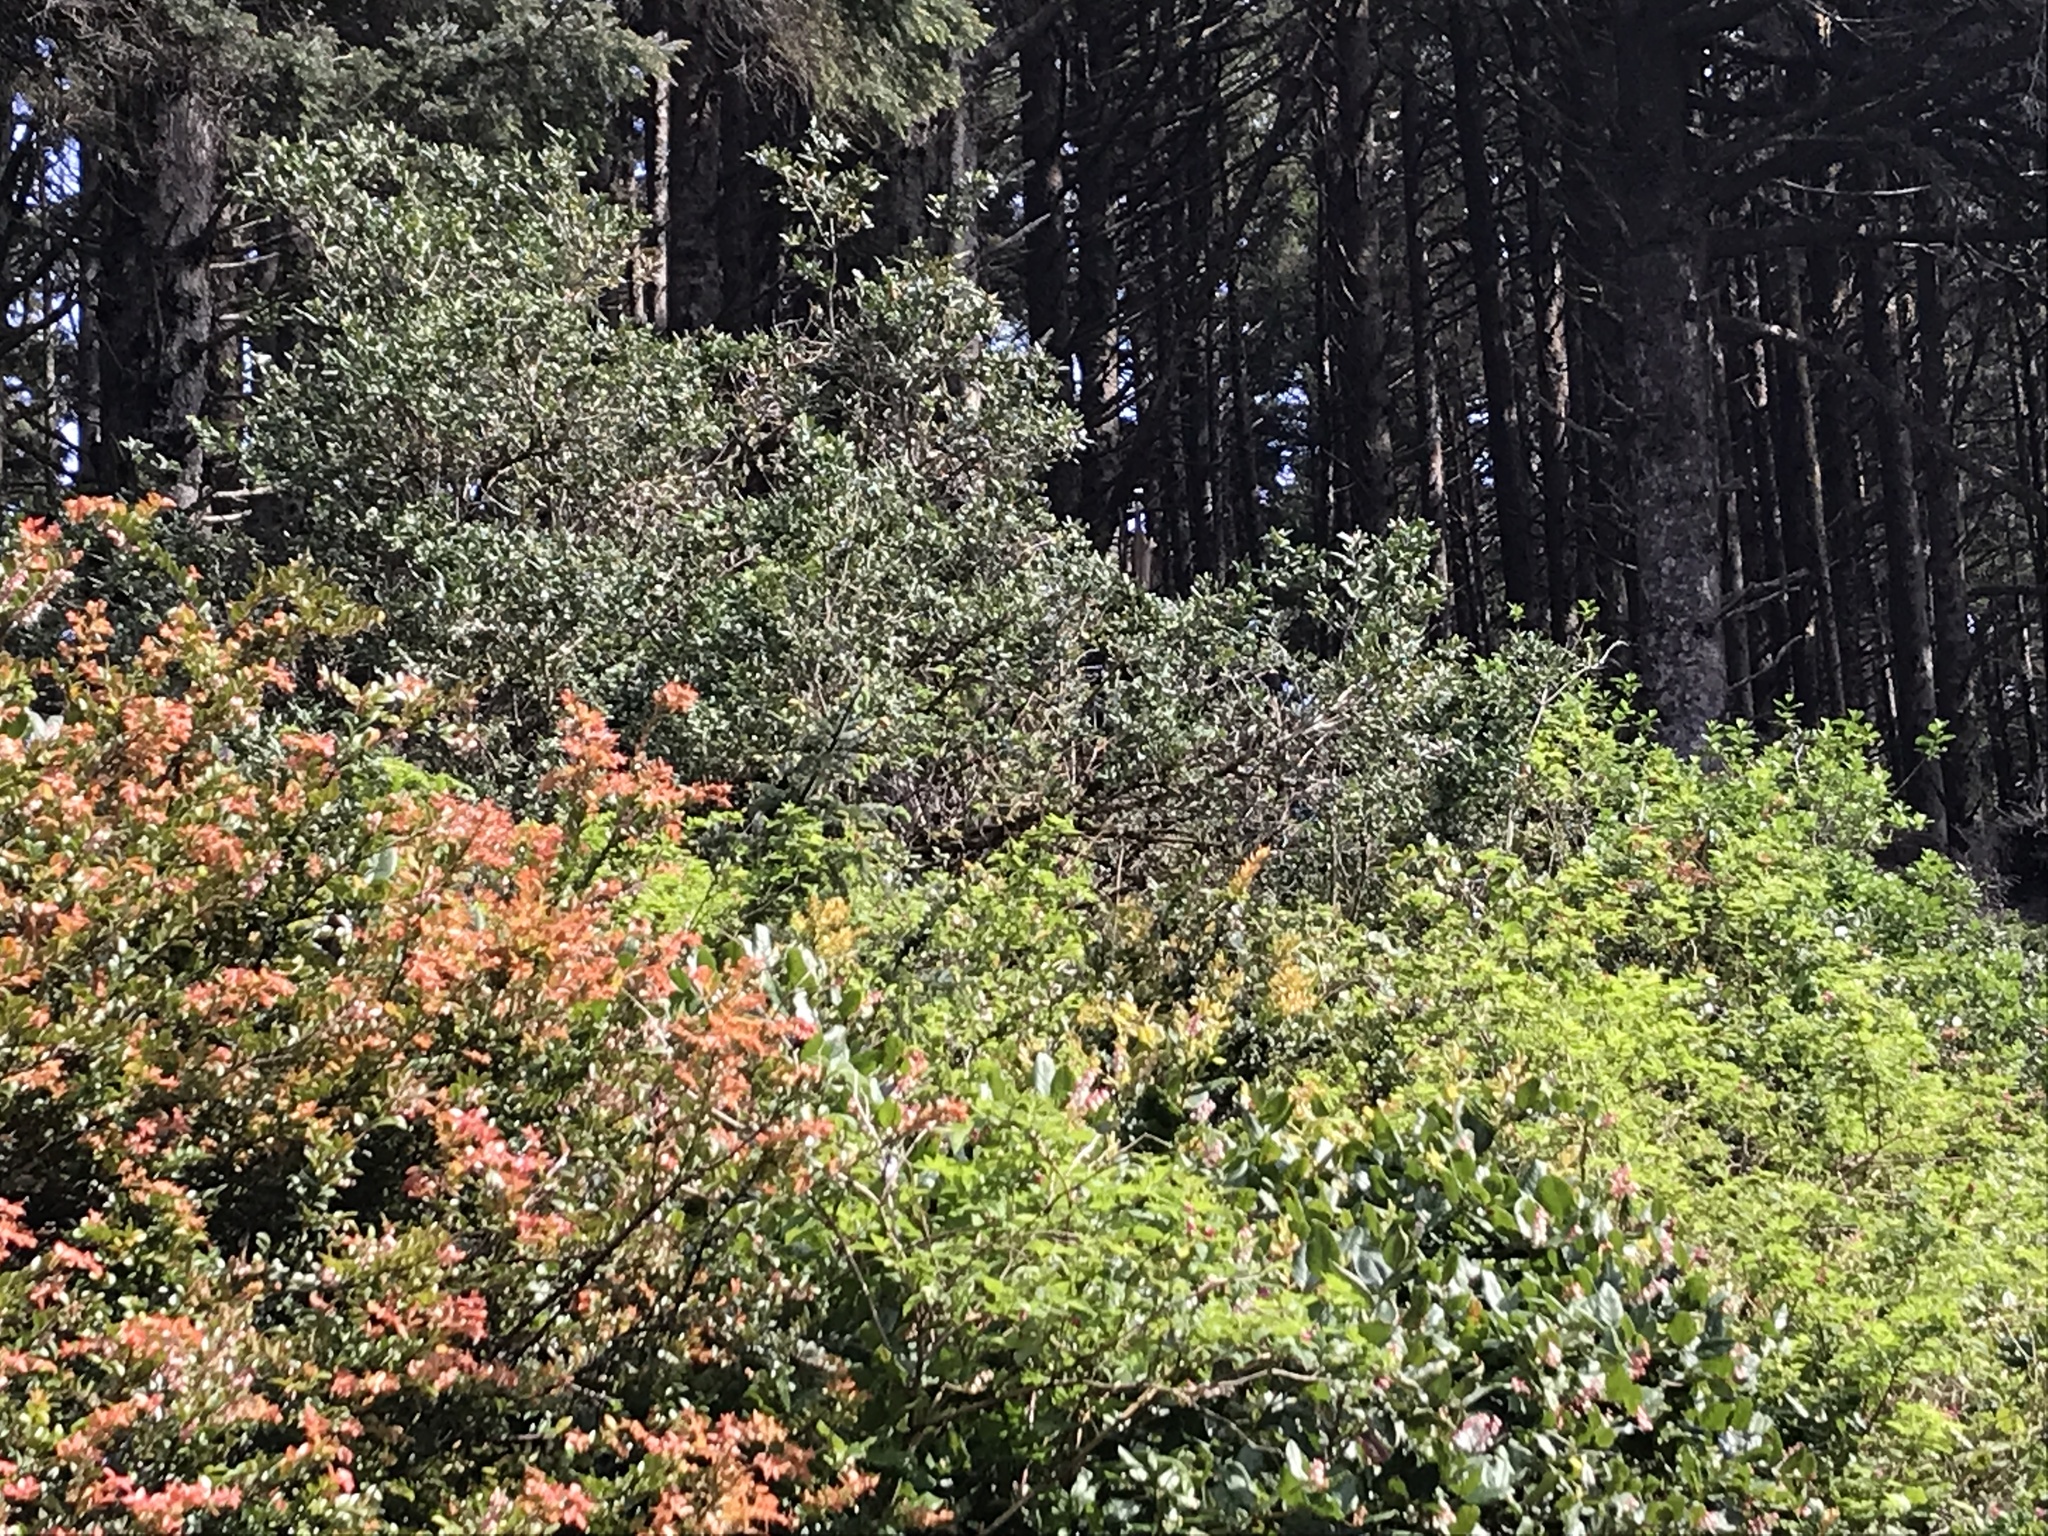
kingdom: Plantae
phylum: Tracheophyta
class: Magnoliopsida
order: Garryales
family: Garryaceae
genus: Garrya
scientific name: Garrya elliptica
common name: Silk-tassel
